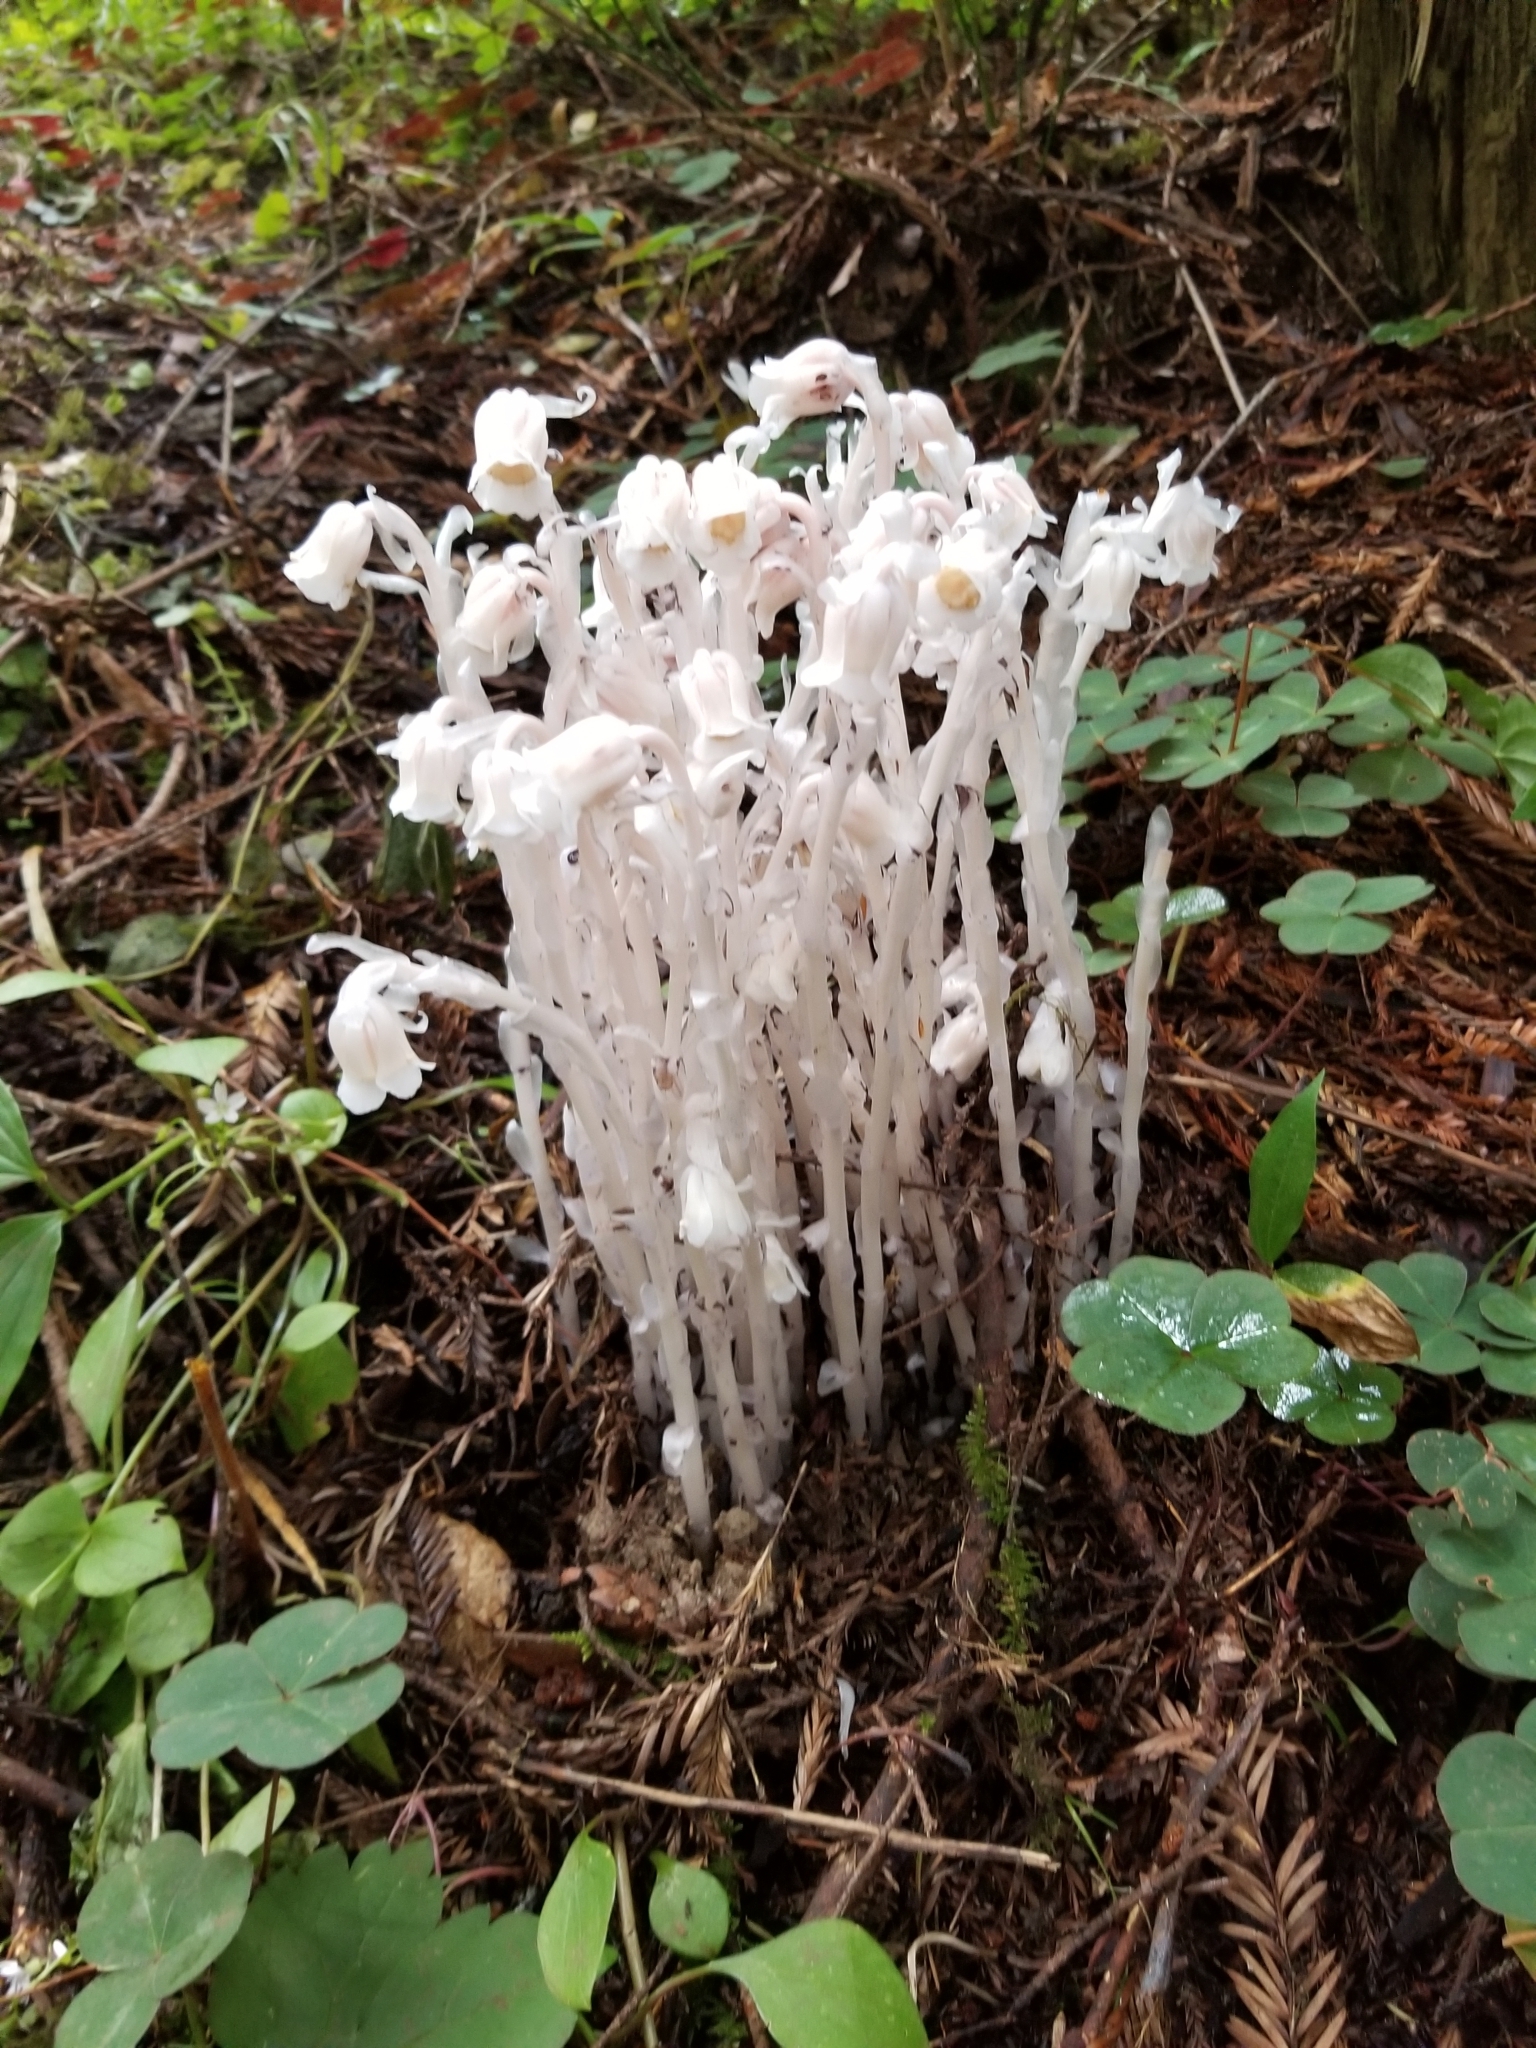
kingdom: Plantae
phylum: Tracheophyta
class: Magnoliopsida
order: Ericales
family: Ericaceae
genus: Monotropa
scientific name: Monotropa uniflora
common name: Convulsion root
